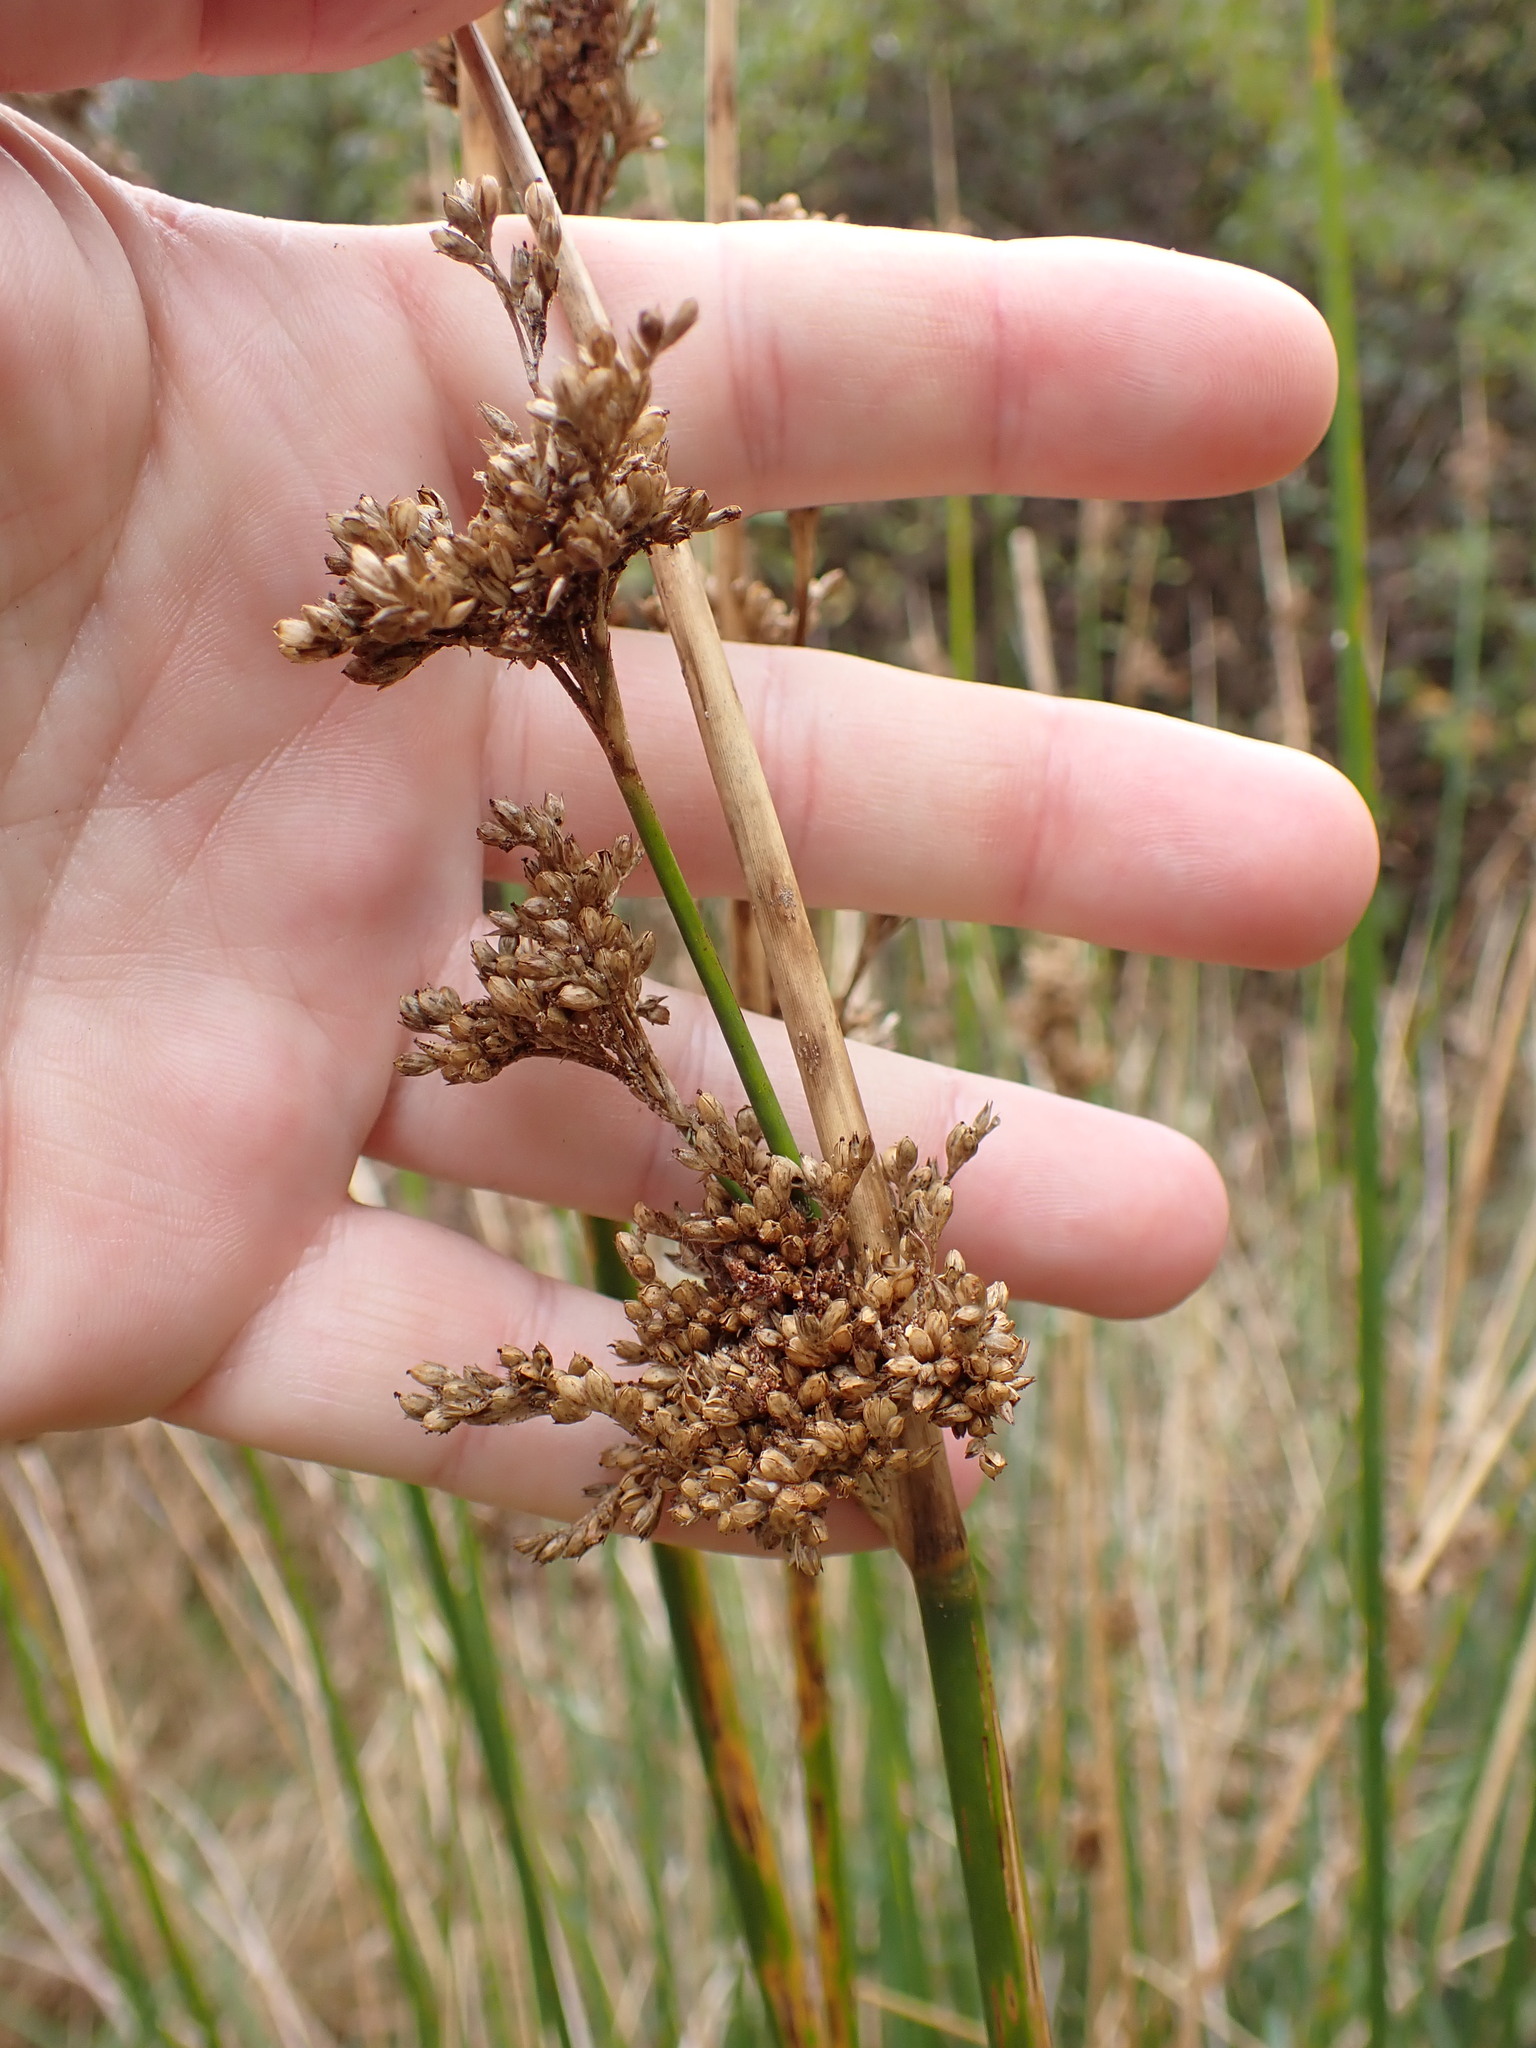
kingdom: Plantae
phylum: Tracheophyta
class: Liliopsida
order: Poales
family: Juncaceae
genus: Juncus
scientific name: Juncus pallidus
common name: Great soft-rush
